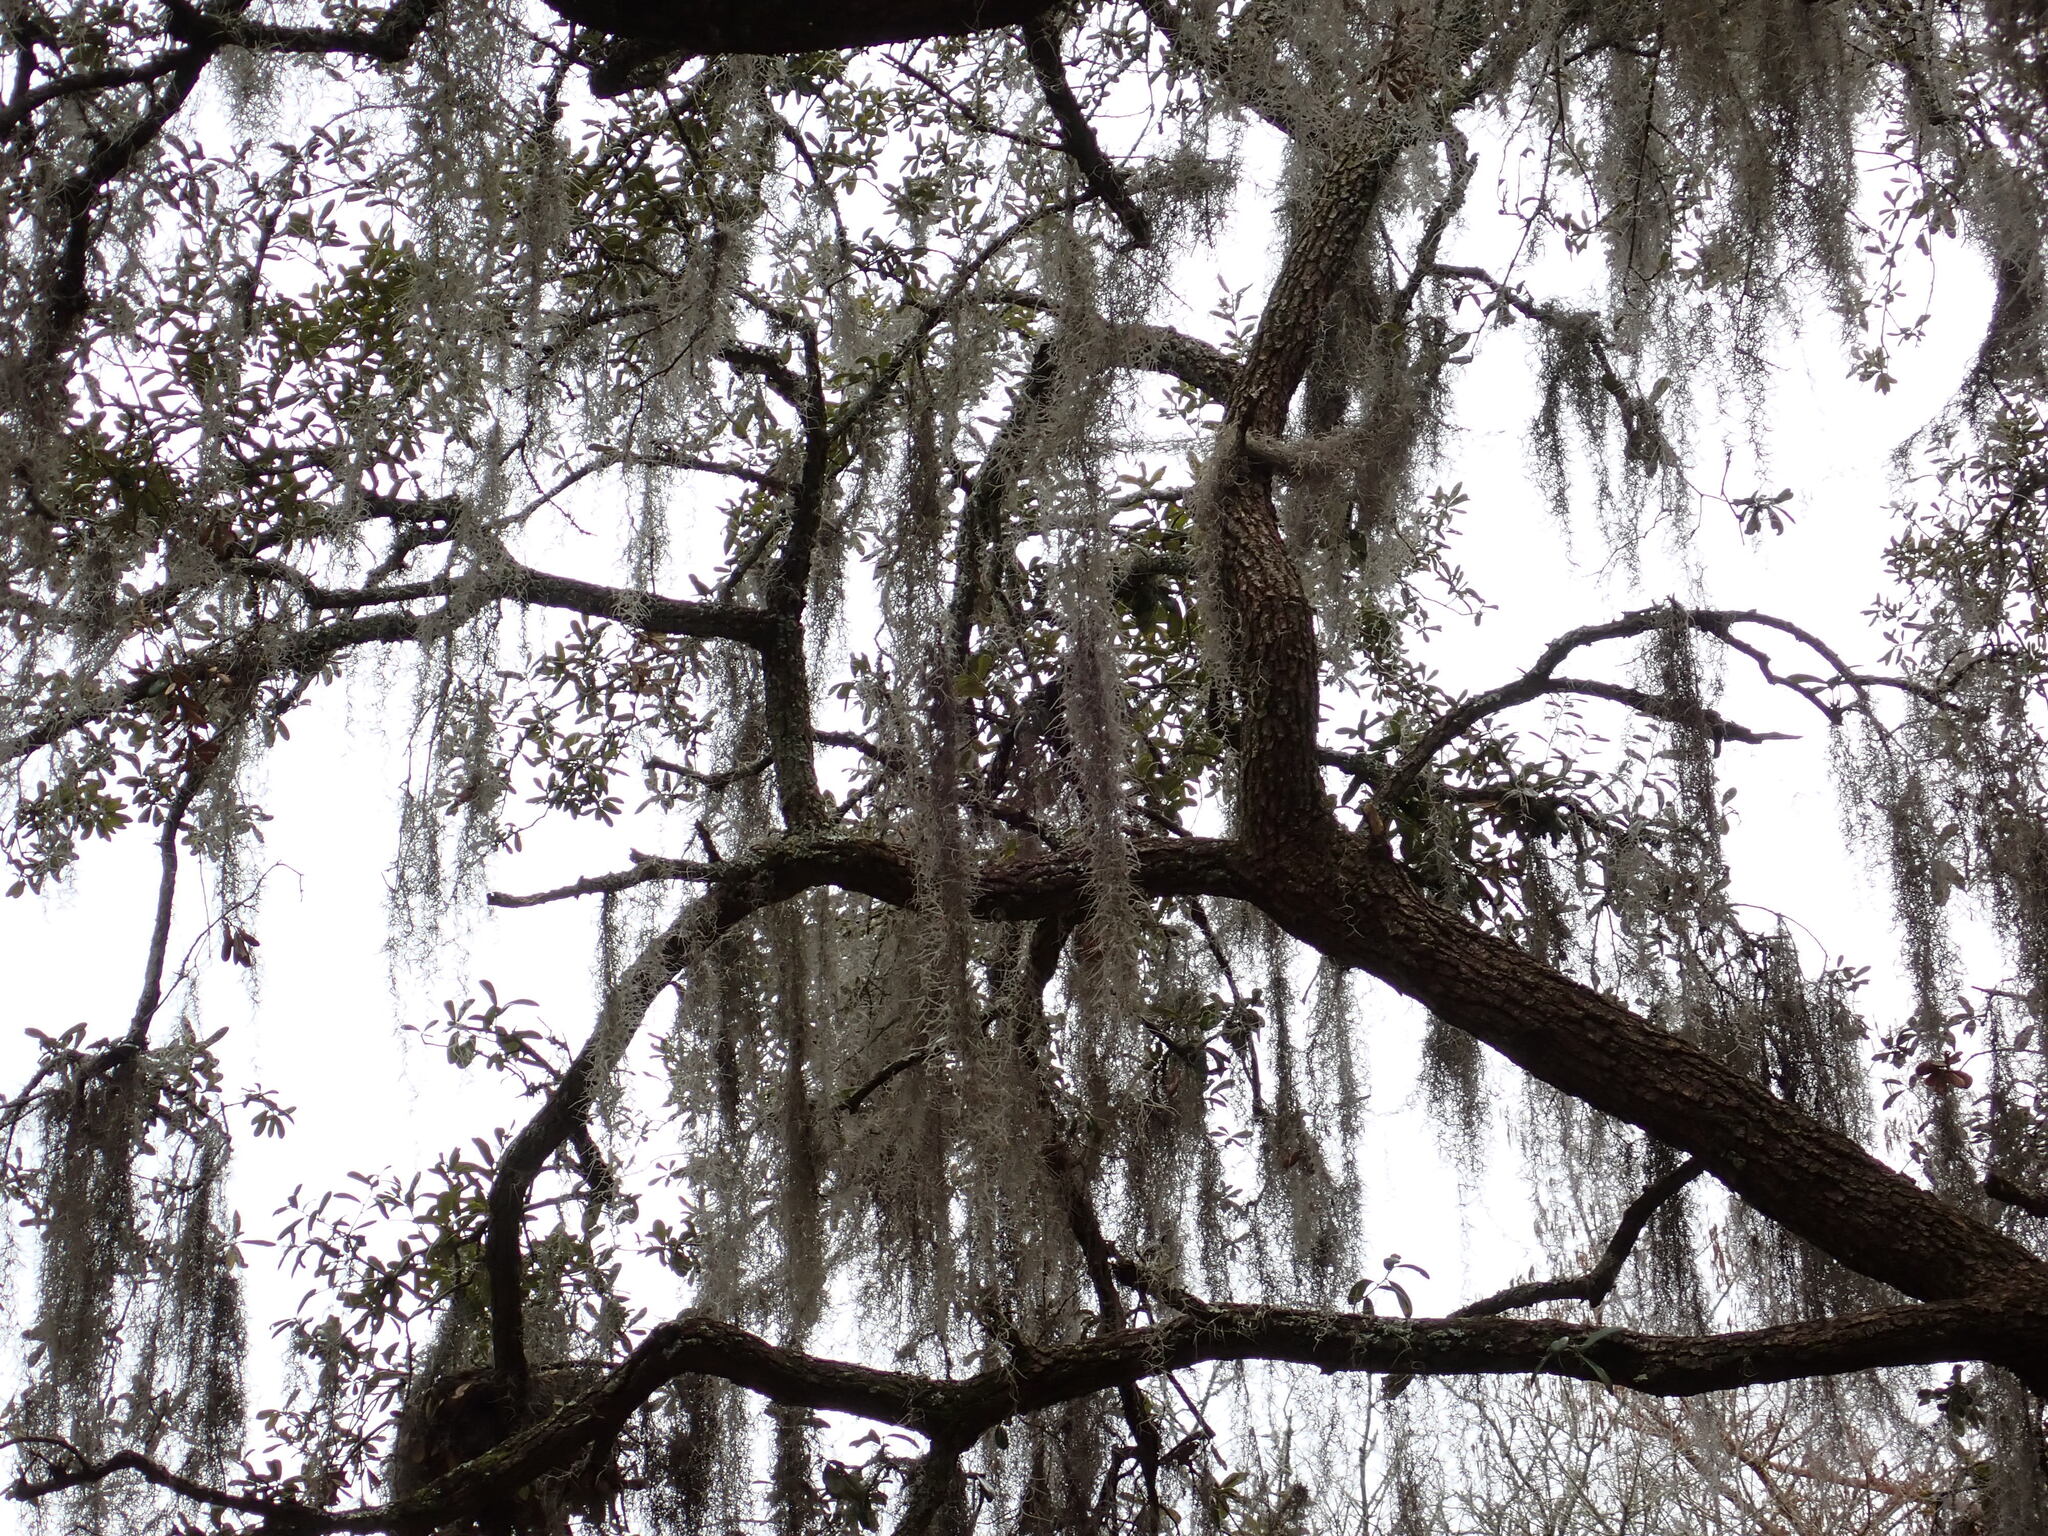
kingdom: Plantae
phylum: Tracheophyta
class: Liliopsida
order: Poales
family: Bromeliaceae
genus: Tillandsia
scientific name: Tillandsia usneoides
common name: Spanish moss
